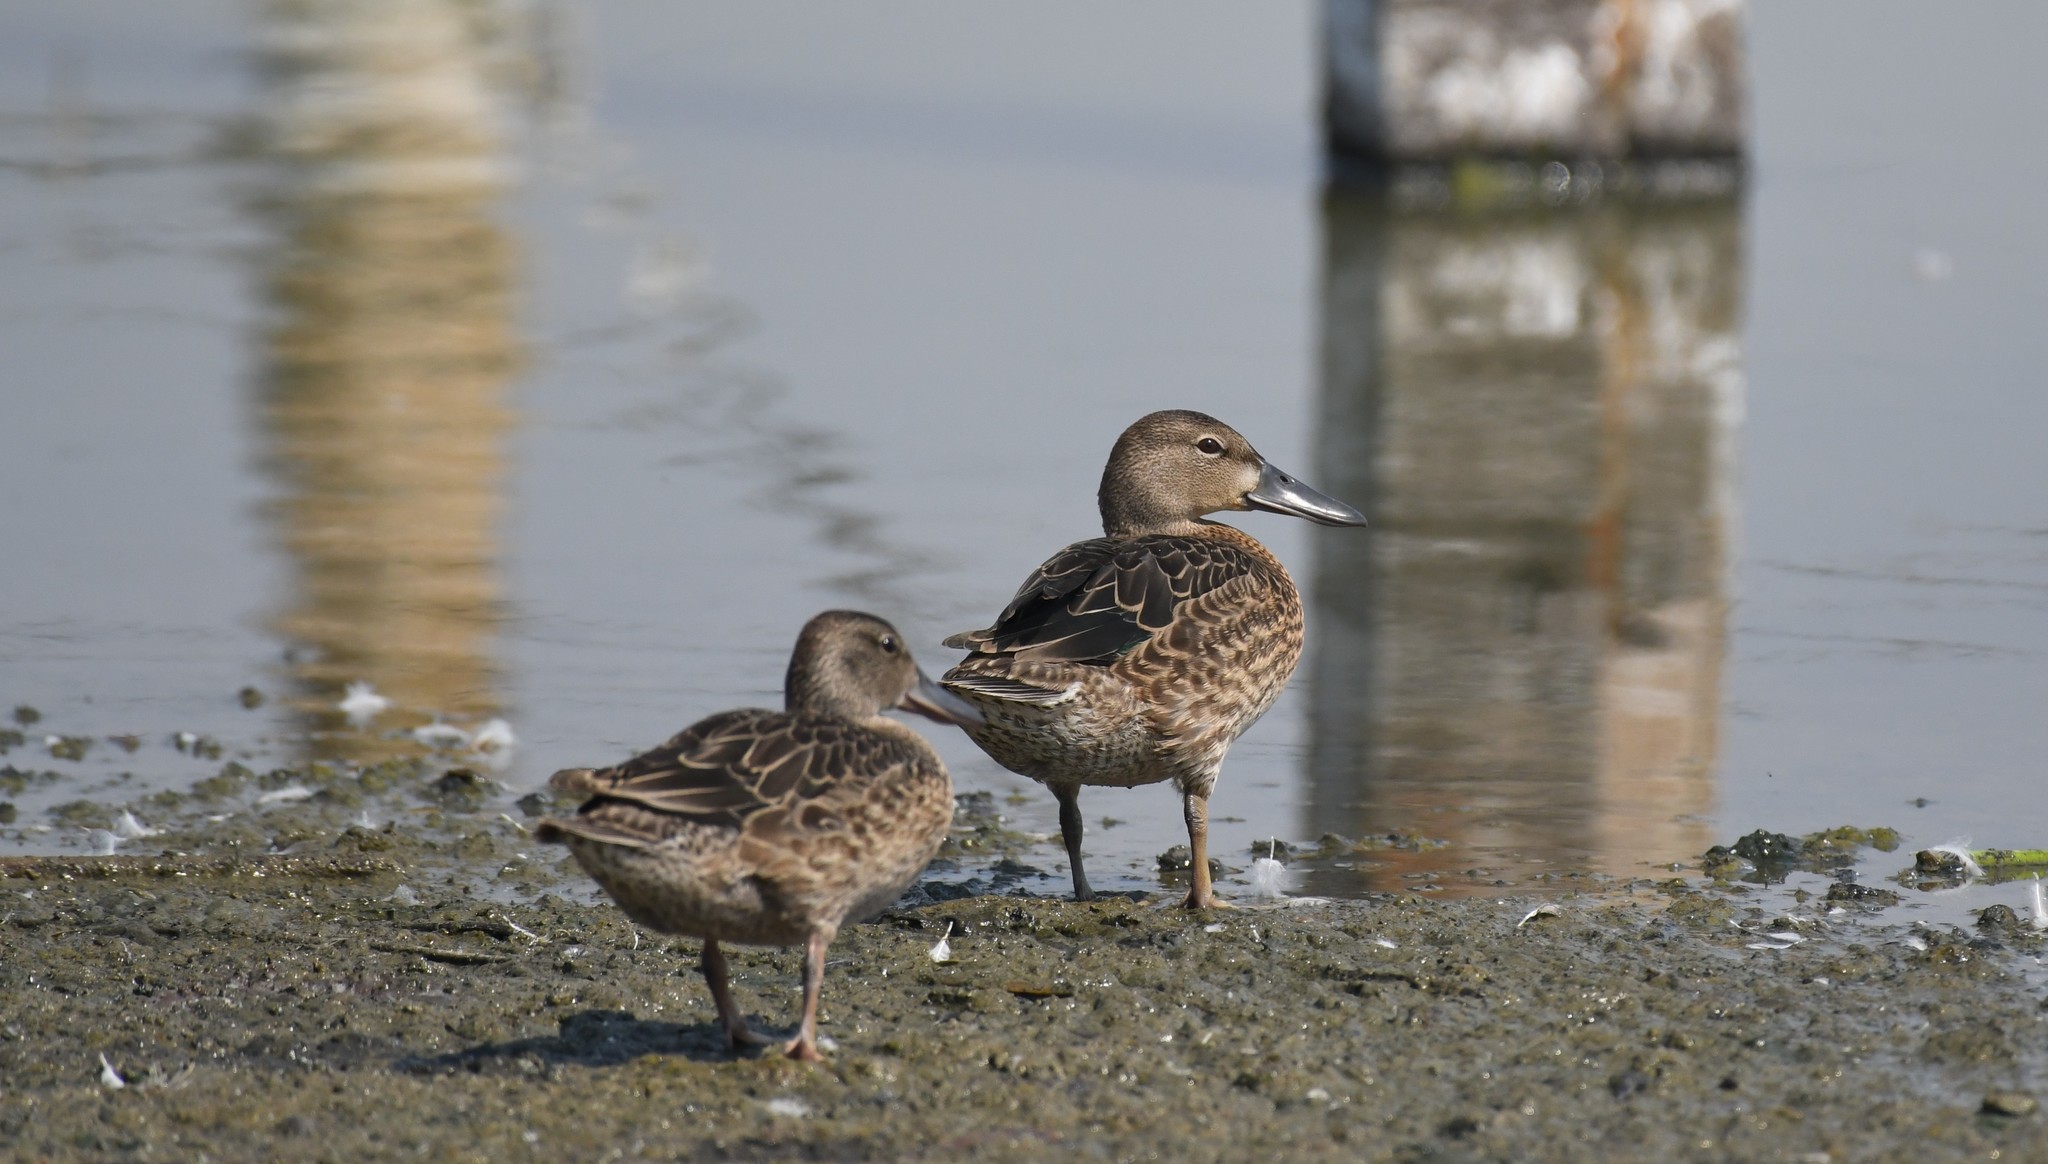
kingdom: Animalia
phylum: Chordata
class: Aves
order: Anseriformes
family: Anatidae
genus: Spatula
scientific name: Spatula discors
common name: Blue-winged teal
